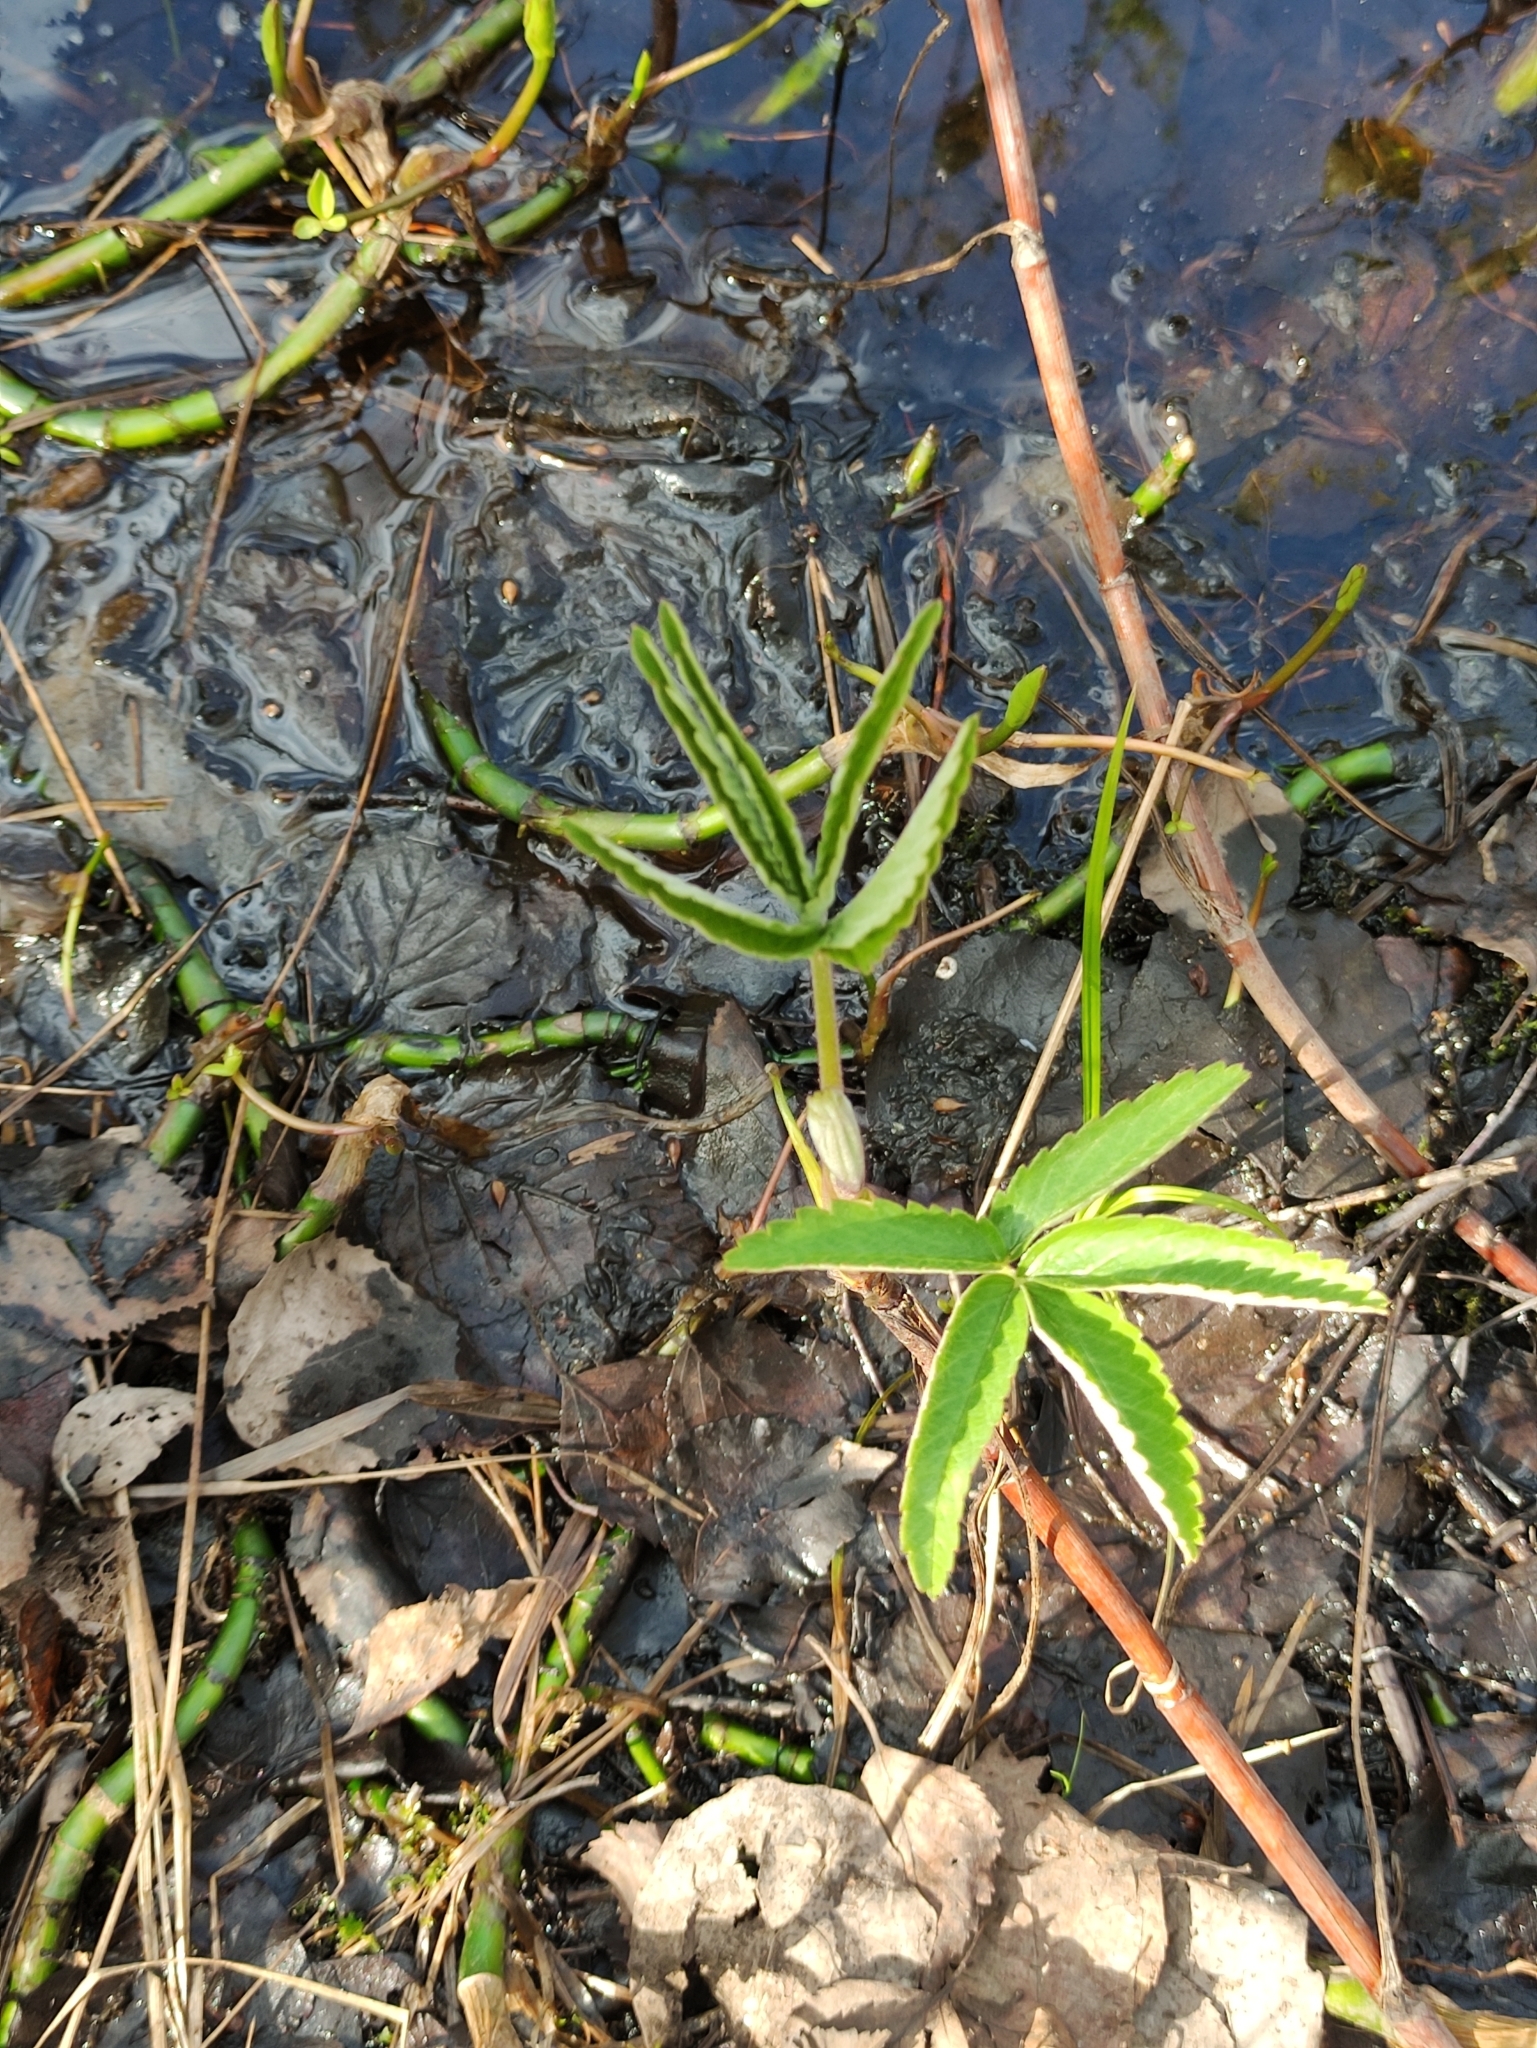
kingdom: Plantae
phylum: Tracheophyta
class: Magnoliopsida
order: Rosales
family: Rosaceae
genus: Comarum
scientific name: Comarum palustre
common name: Marsh cinquefoil
